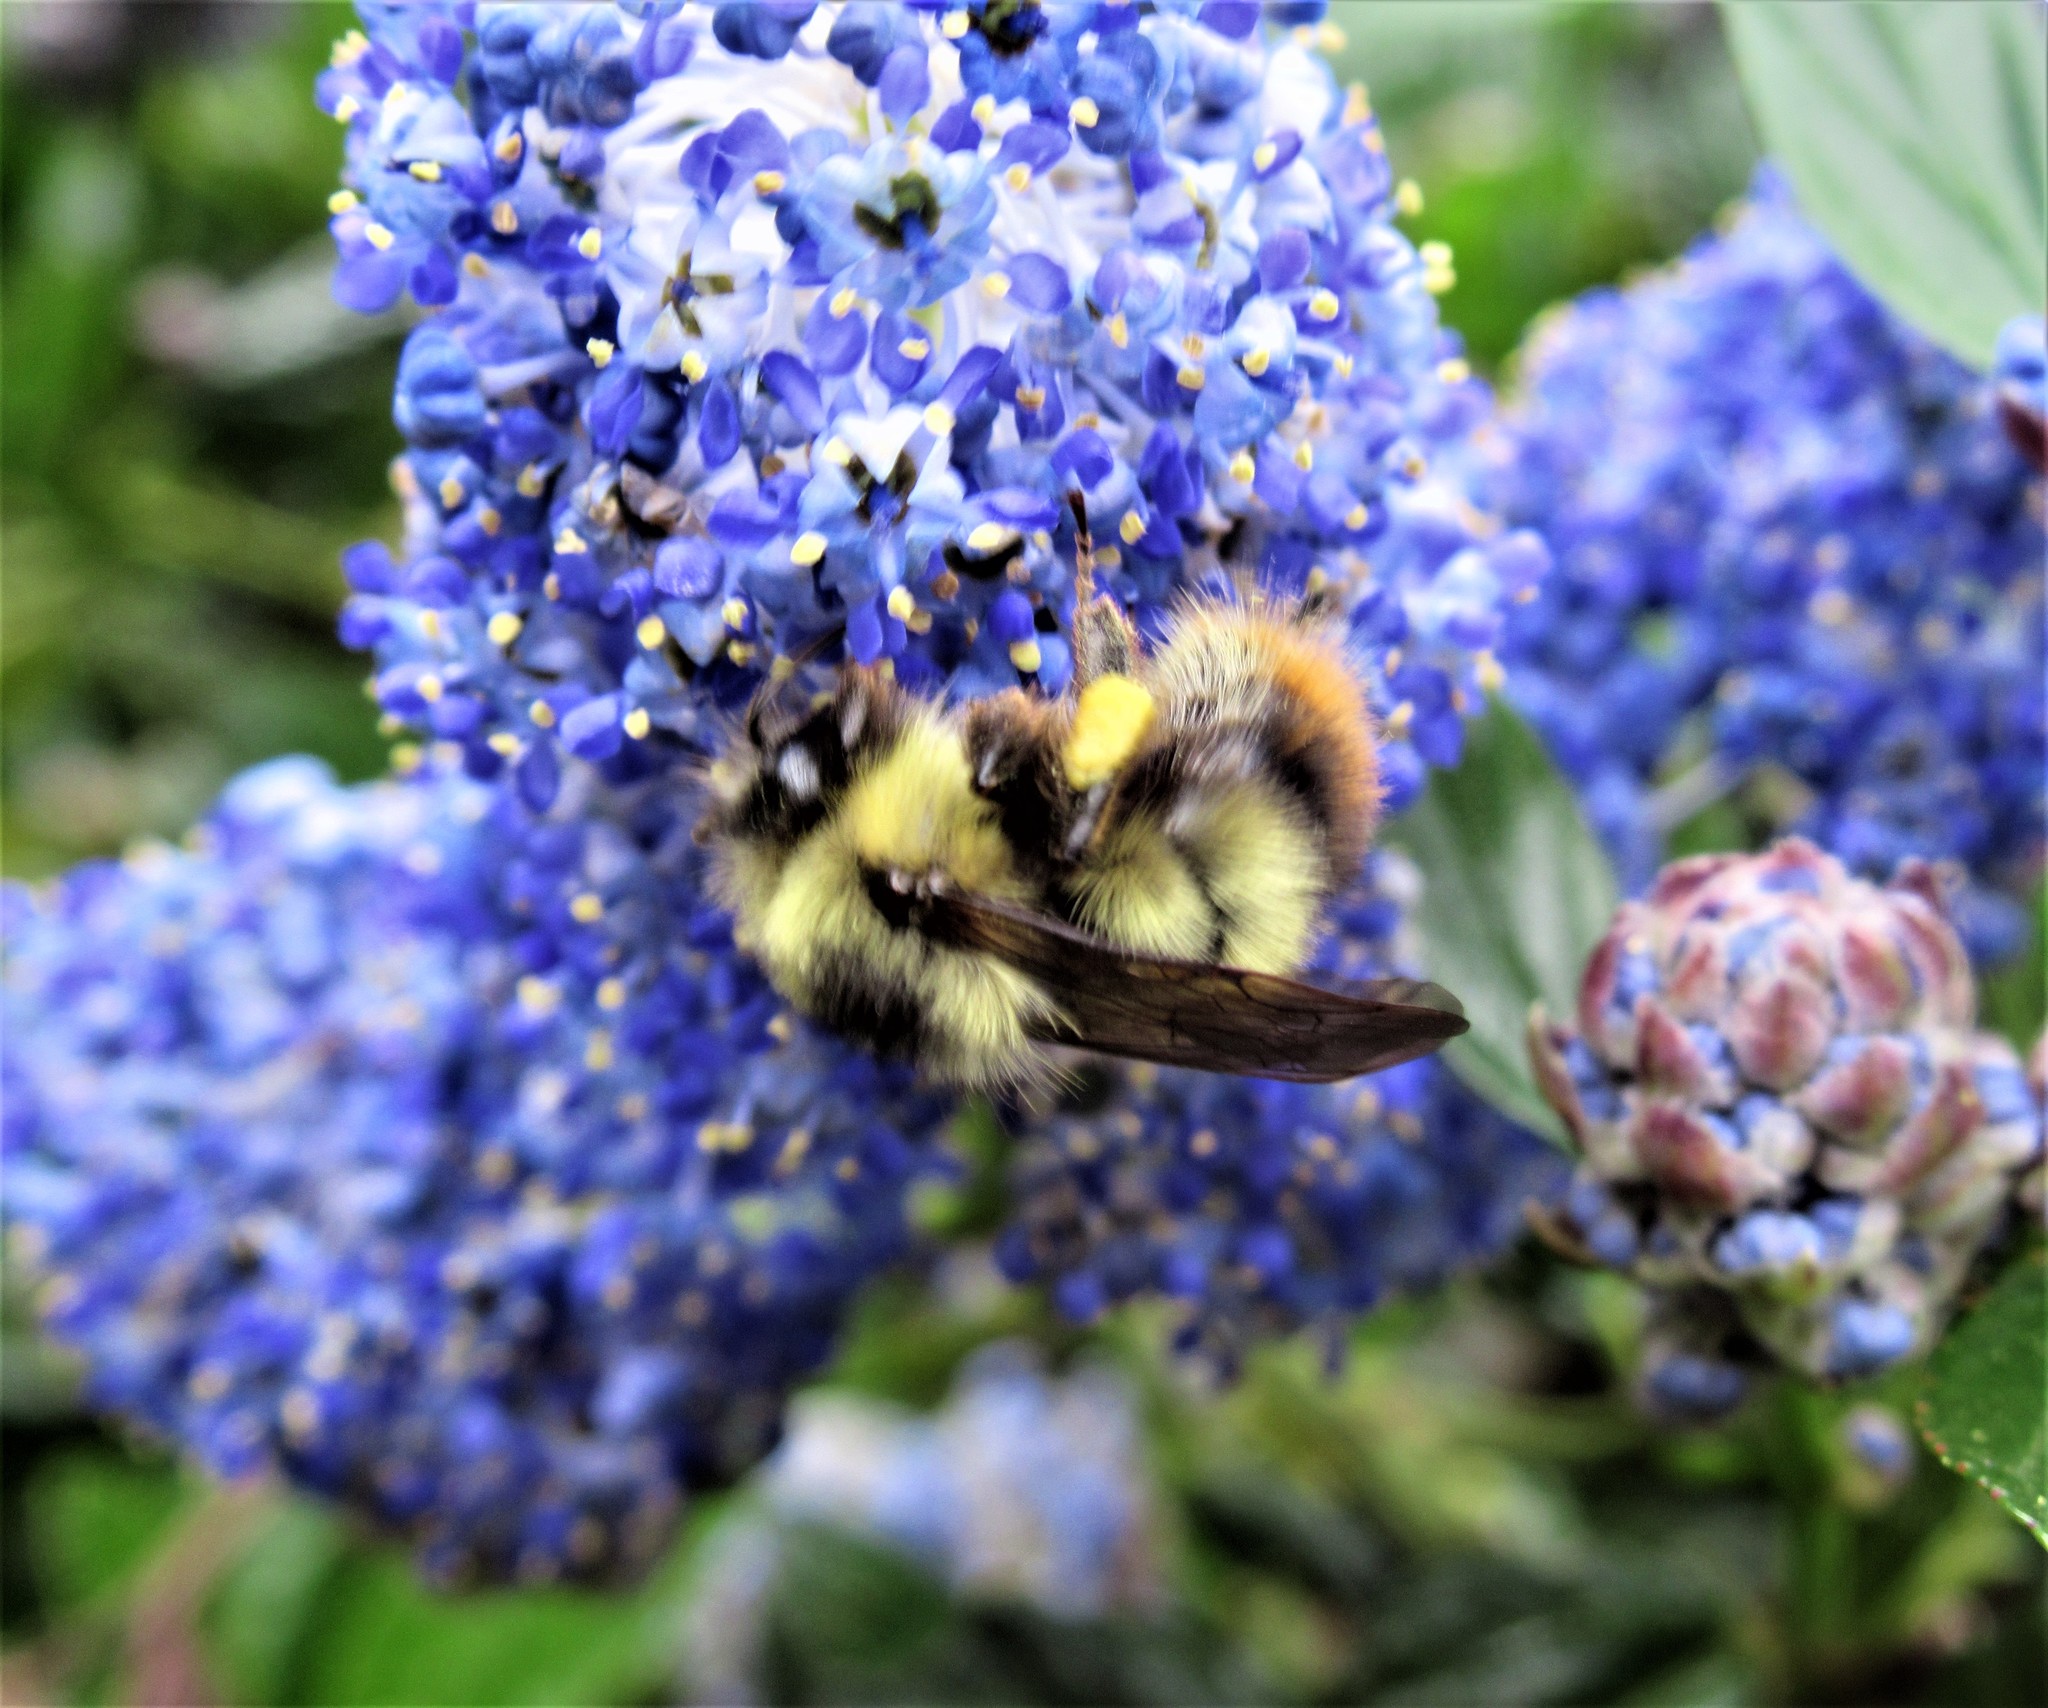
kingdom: Animalia
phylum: Arthropoda
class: Insecta
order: Hymenoptera
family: Apidae
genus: Bombus
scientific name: Bombus mixtus
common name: Fuzzy-horned bumble bee
